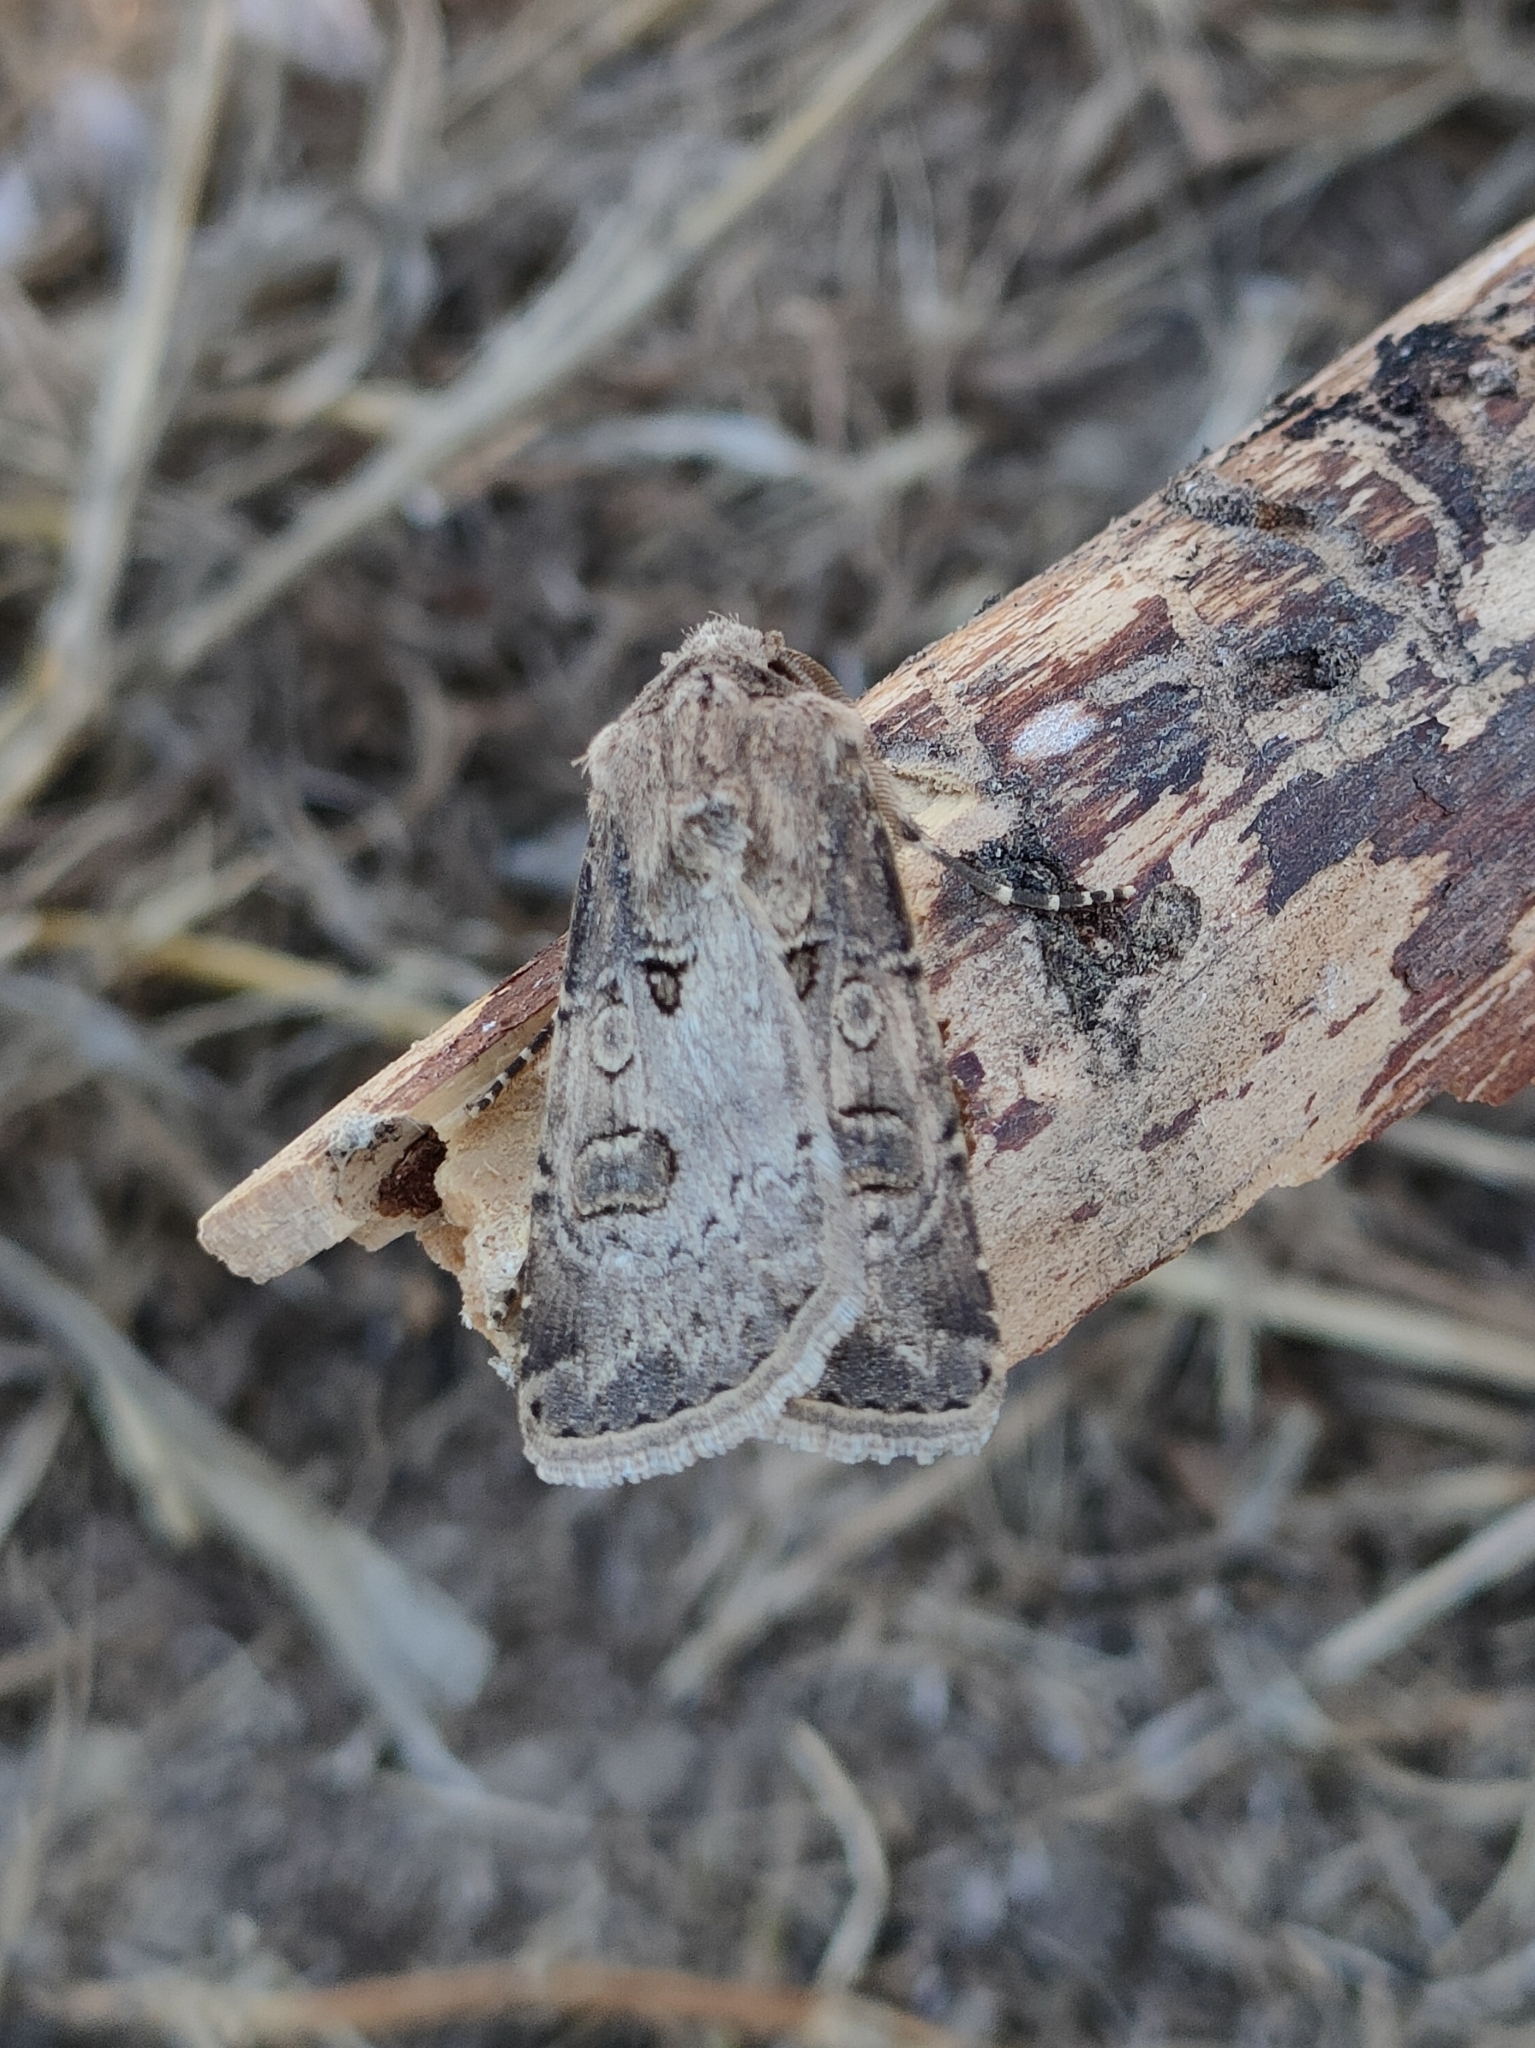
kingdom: Animalia
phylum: Arthropoda
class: Insecta
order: Lepidoptera
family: Noctuidae
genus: Agrotis
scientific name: Agrotis bigramma
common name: Great dart
